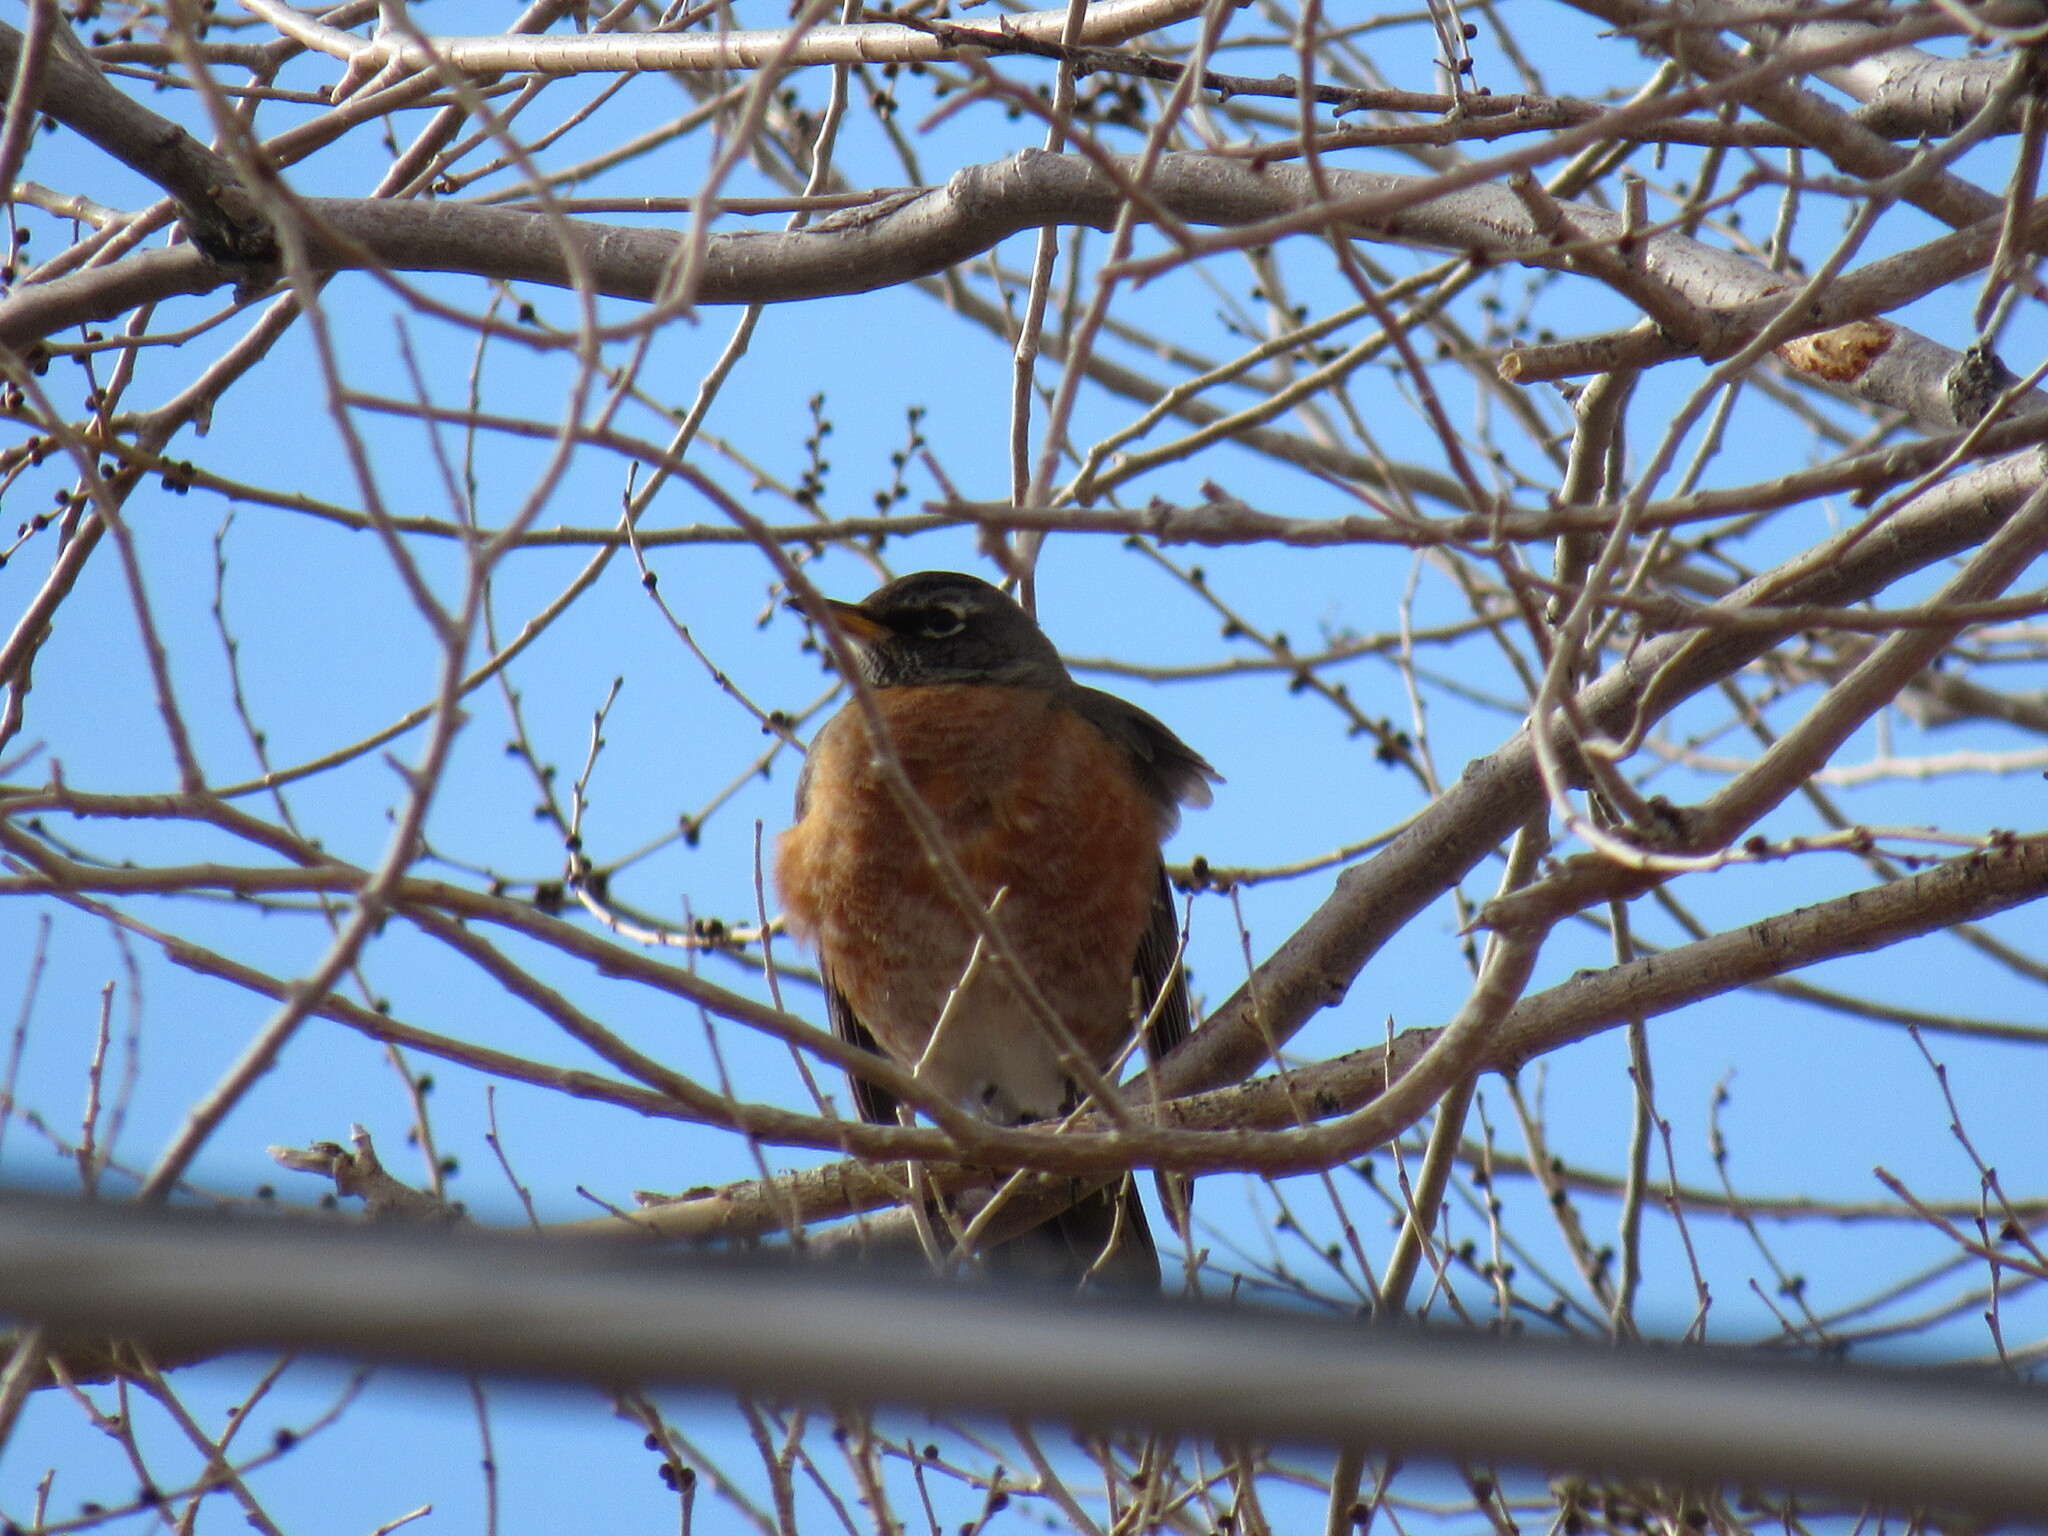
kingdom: Animalia
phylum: Chordata
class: Aves
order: Passeriformes
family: Turdidae
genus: Turdus
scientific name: Turdus migratorius
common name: American robin
